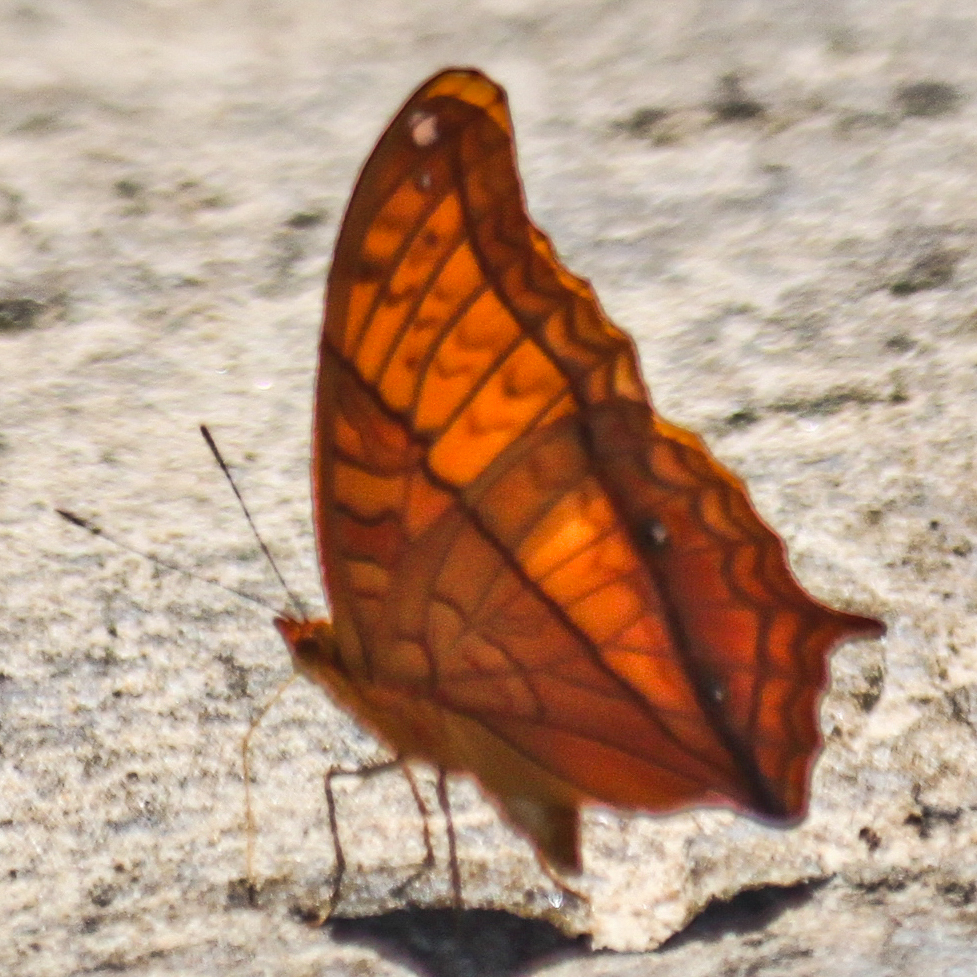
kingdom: Animalia
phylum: Arthropoda
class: Insecta
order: Lepidoptera
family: Nymphalidae
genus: Vindula
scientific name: Vindula erota
